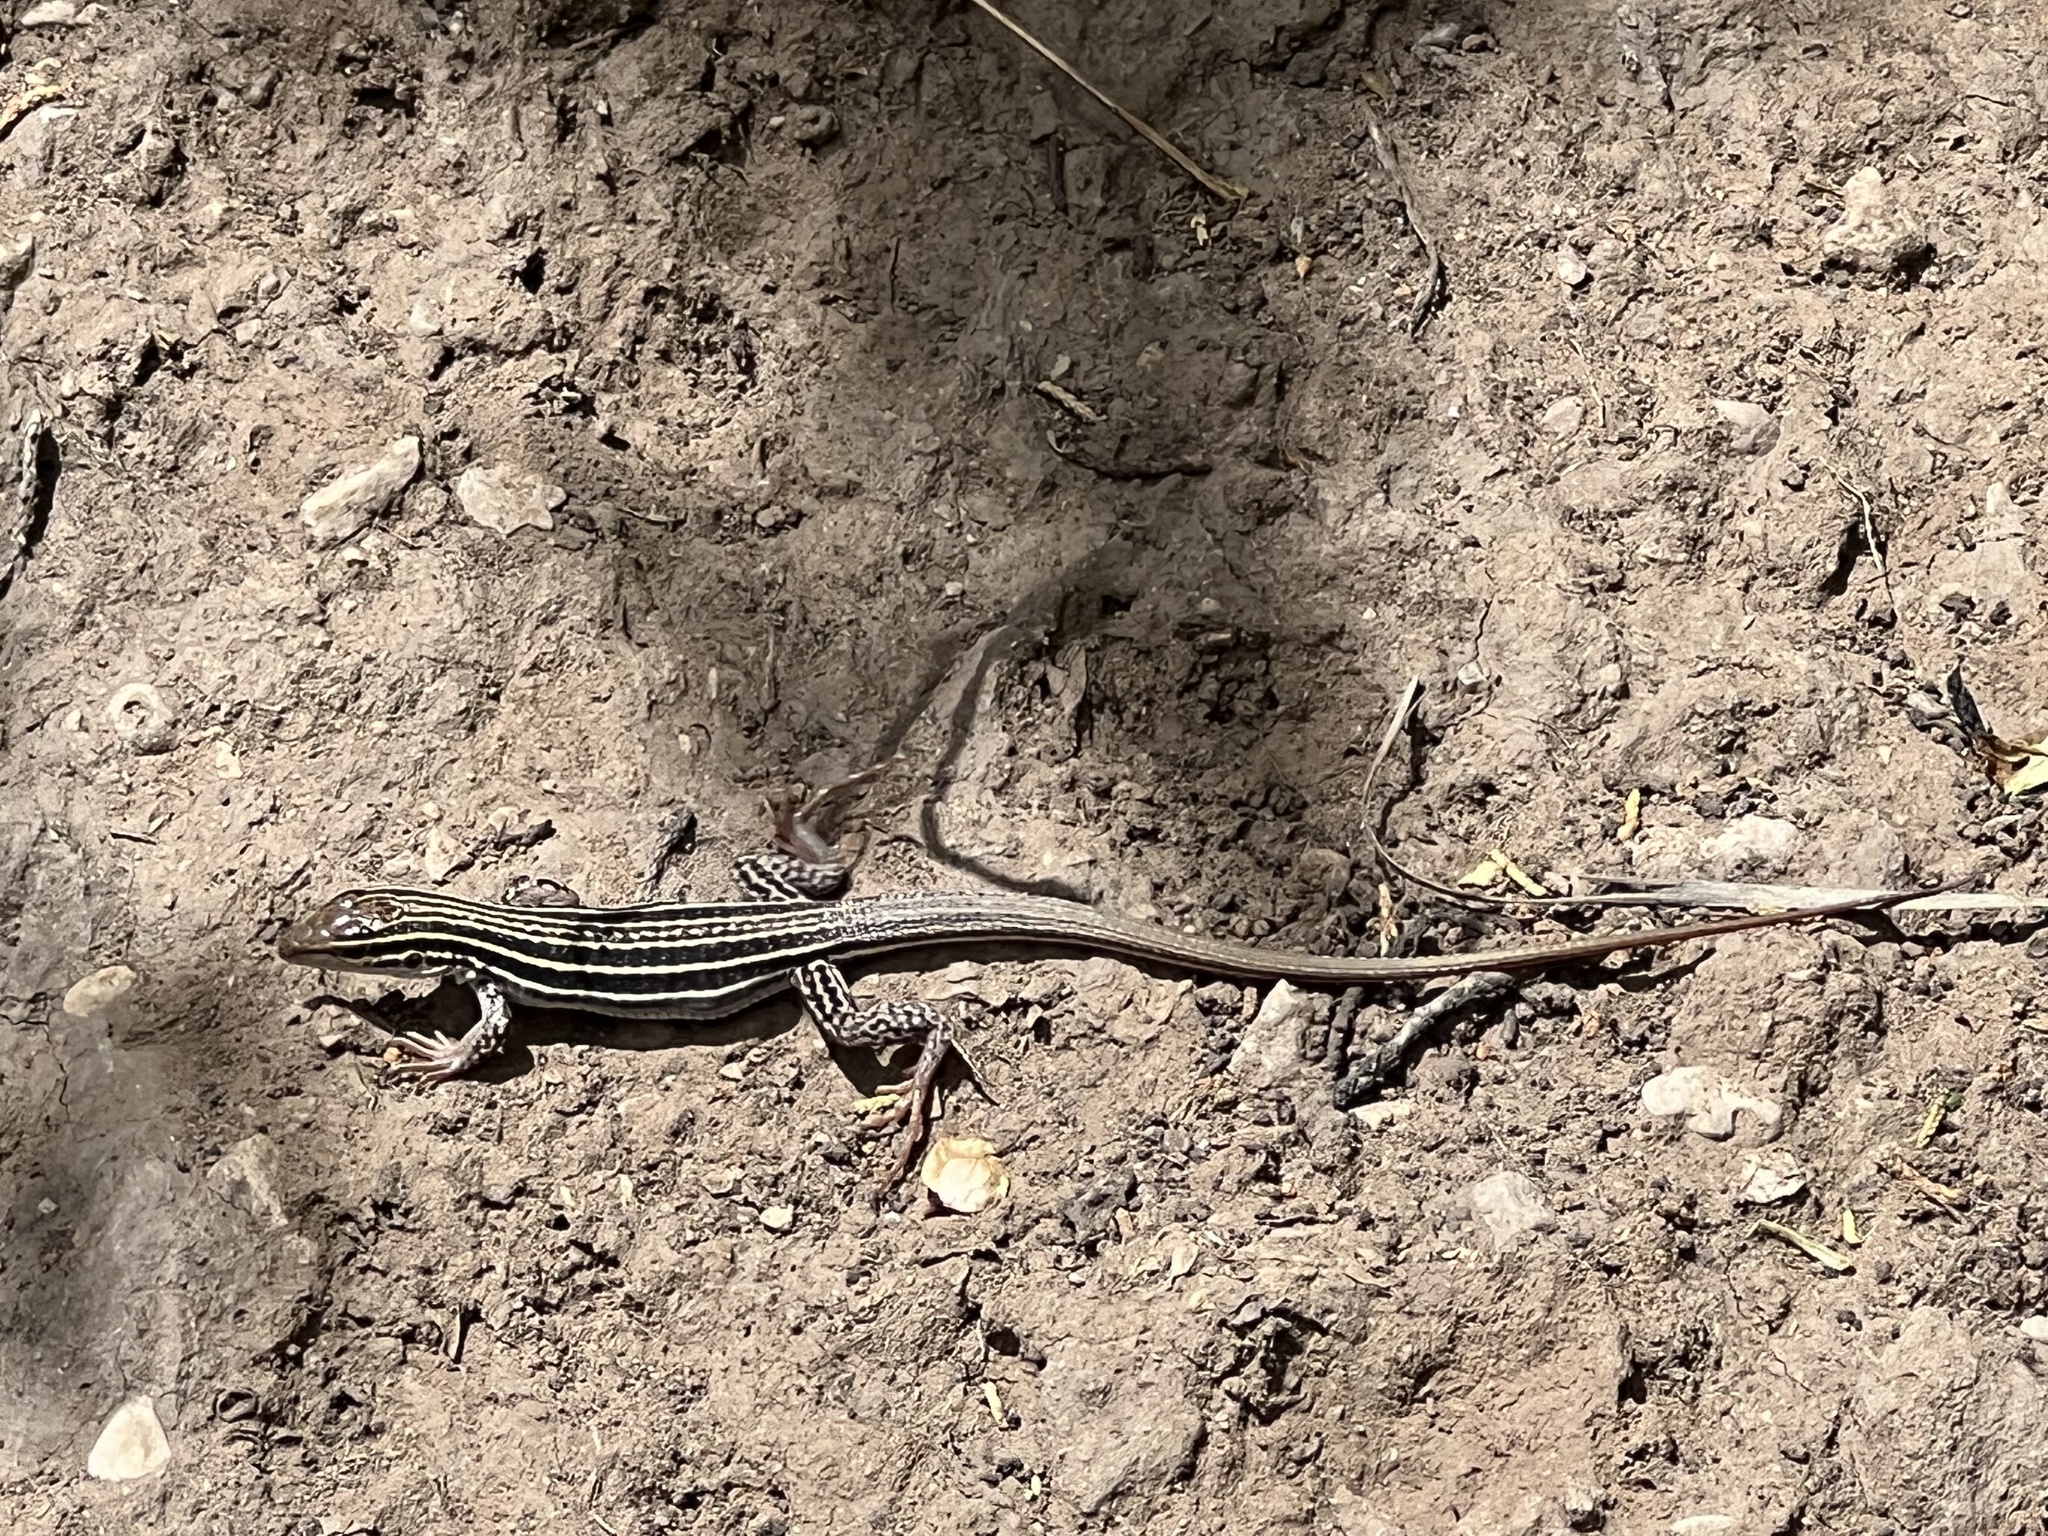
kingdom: Animalia
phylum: Chordata
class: Squamata
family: Teiidae
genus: Aspidoscelis
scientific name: Aspidoscelis exsanguis
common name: Chihuahuan spotted whiptail
